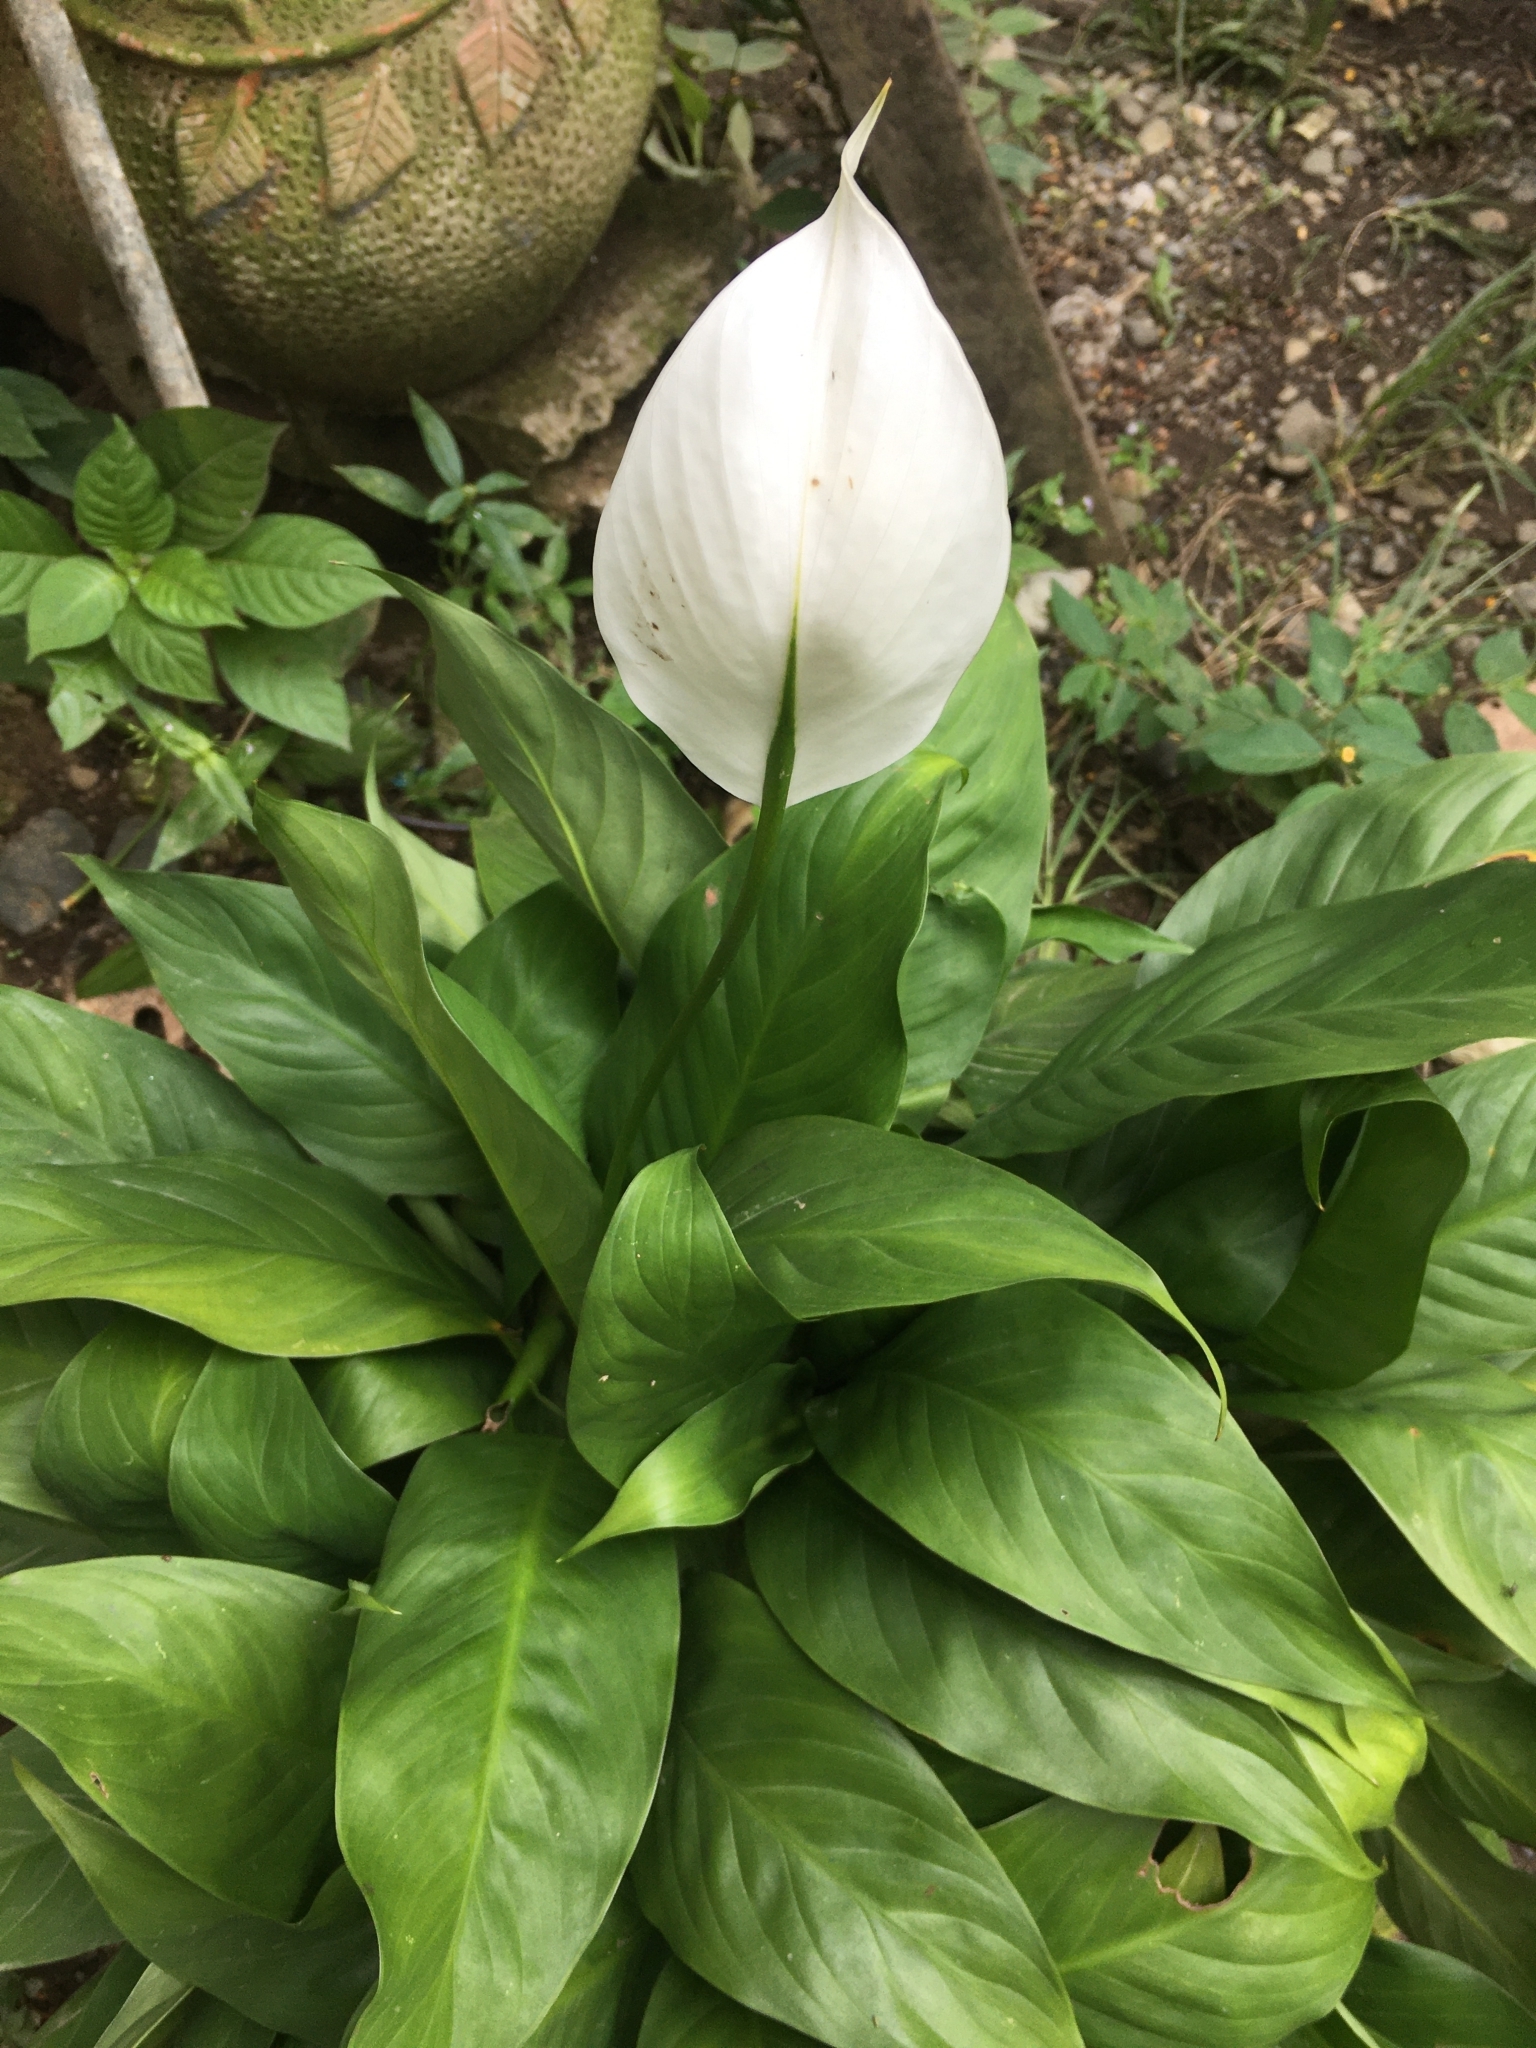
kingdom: Plantae
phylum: Tracheophyta
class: Liliopsida
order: Alismatales
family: Araceae
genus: Spathiphyllum
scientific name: Spathiphyllum wallisii
